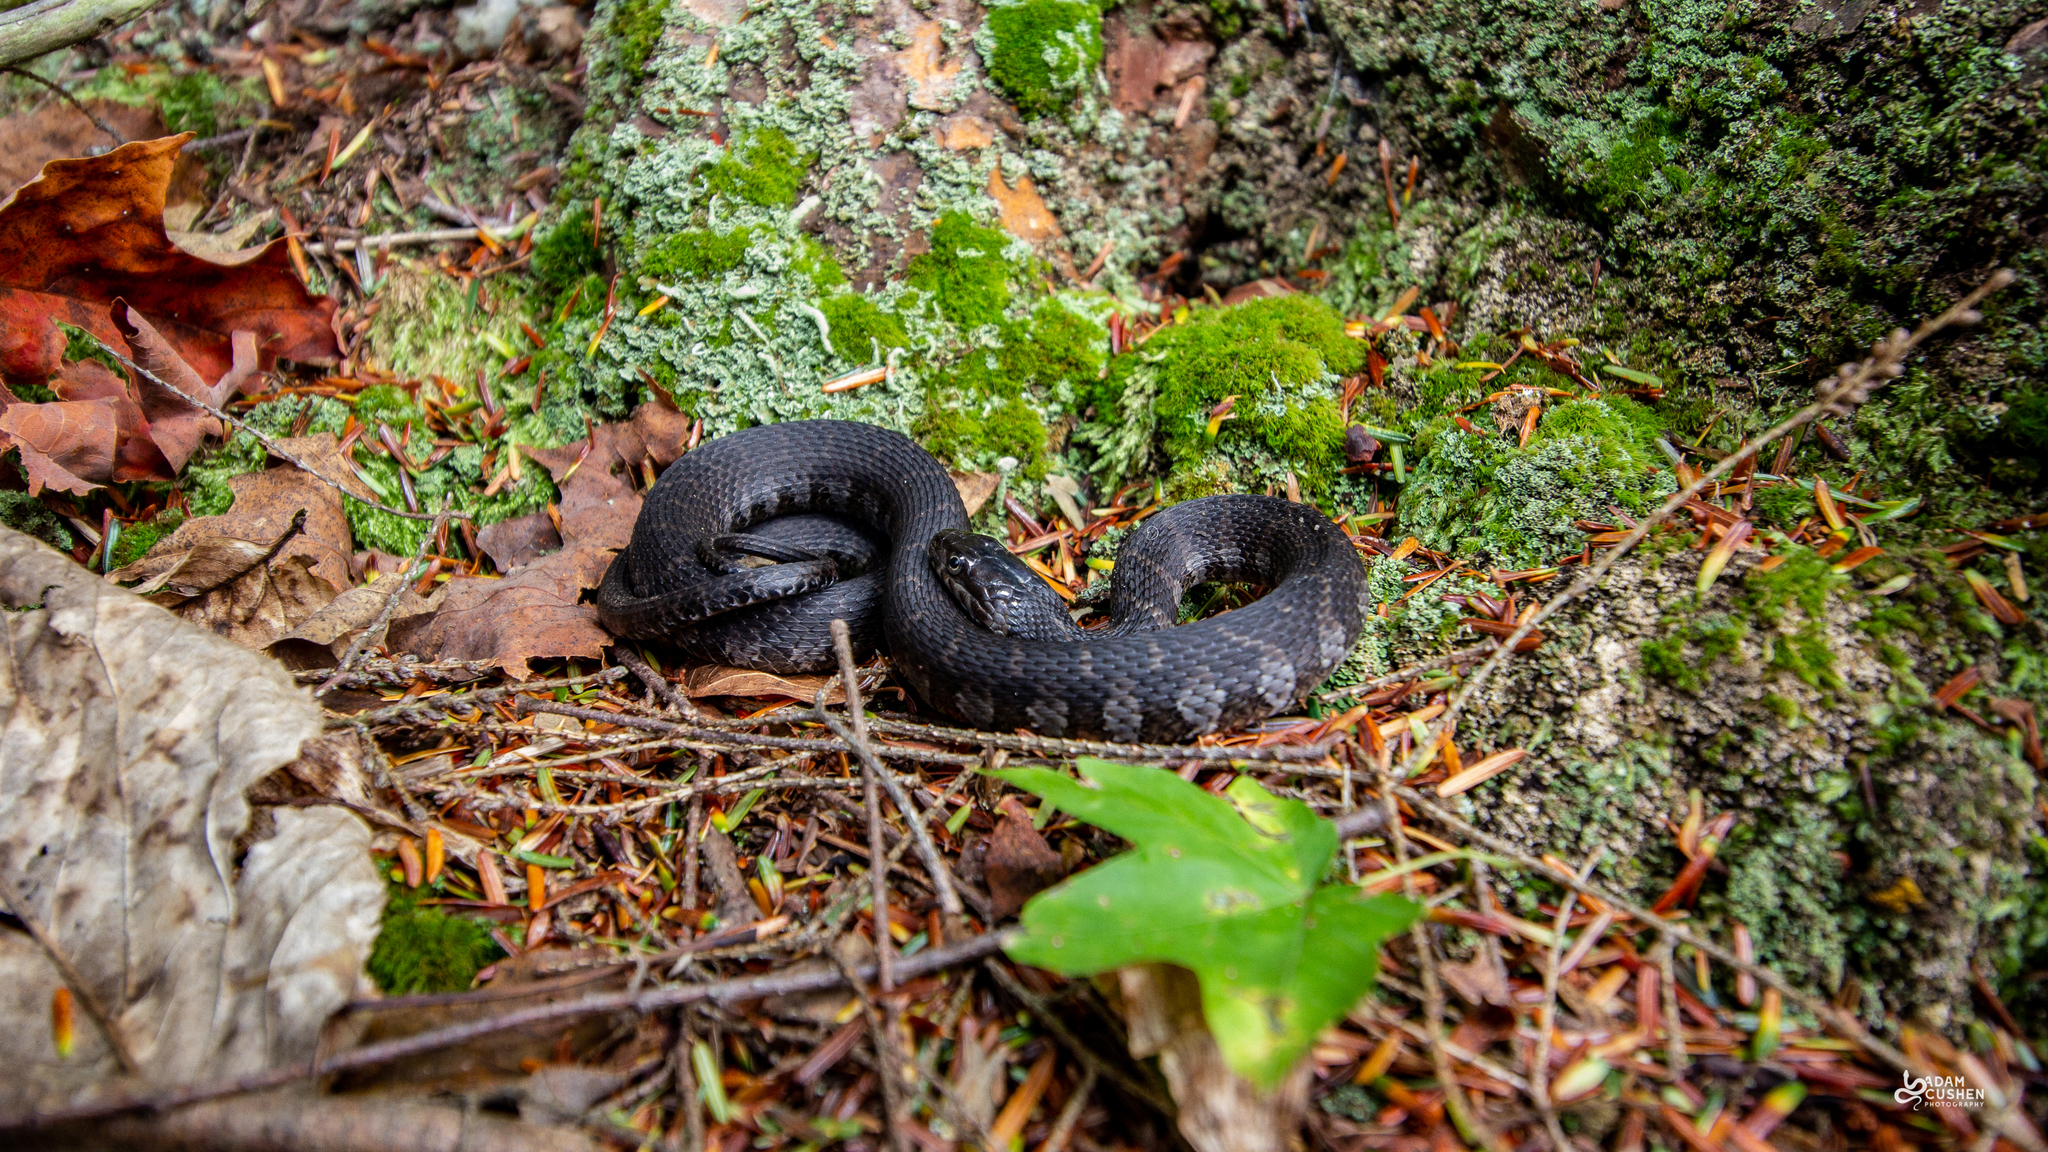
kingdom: Animalia
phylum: Chordata
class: Squamata
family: Colubridae
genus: Nerodia
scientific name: Nerodia sipedon
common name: Northern water snake
